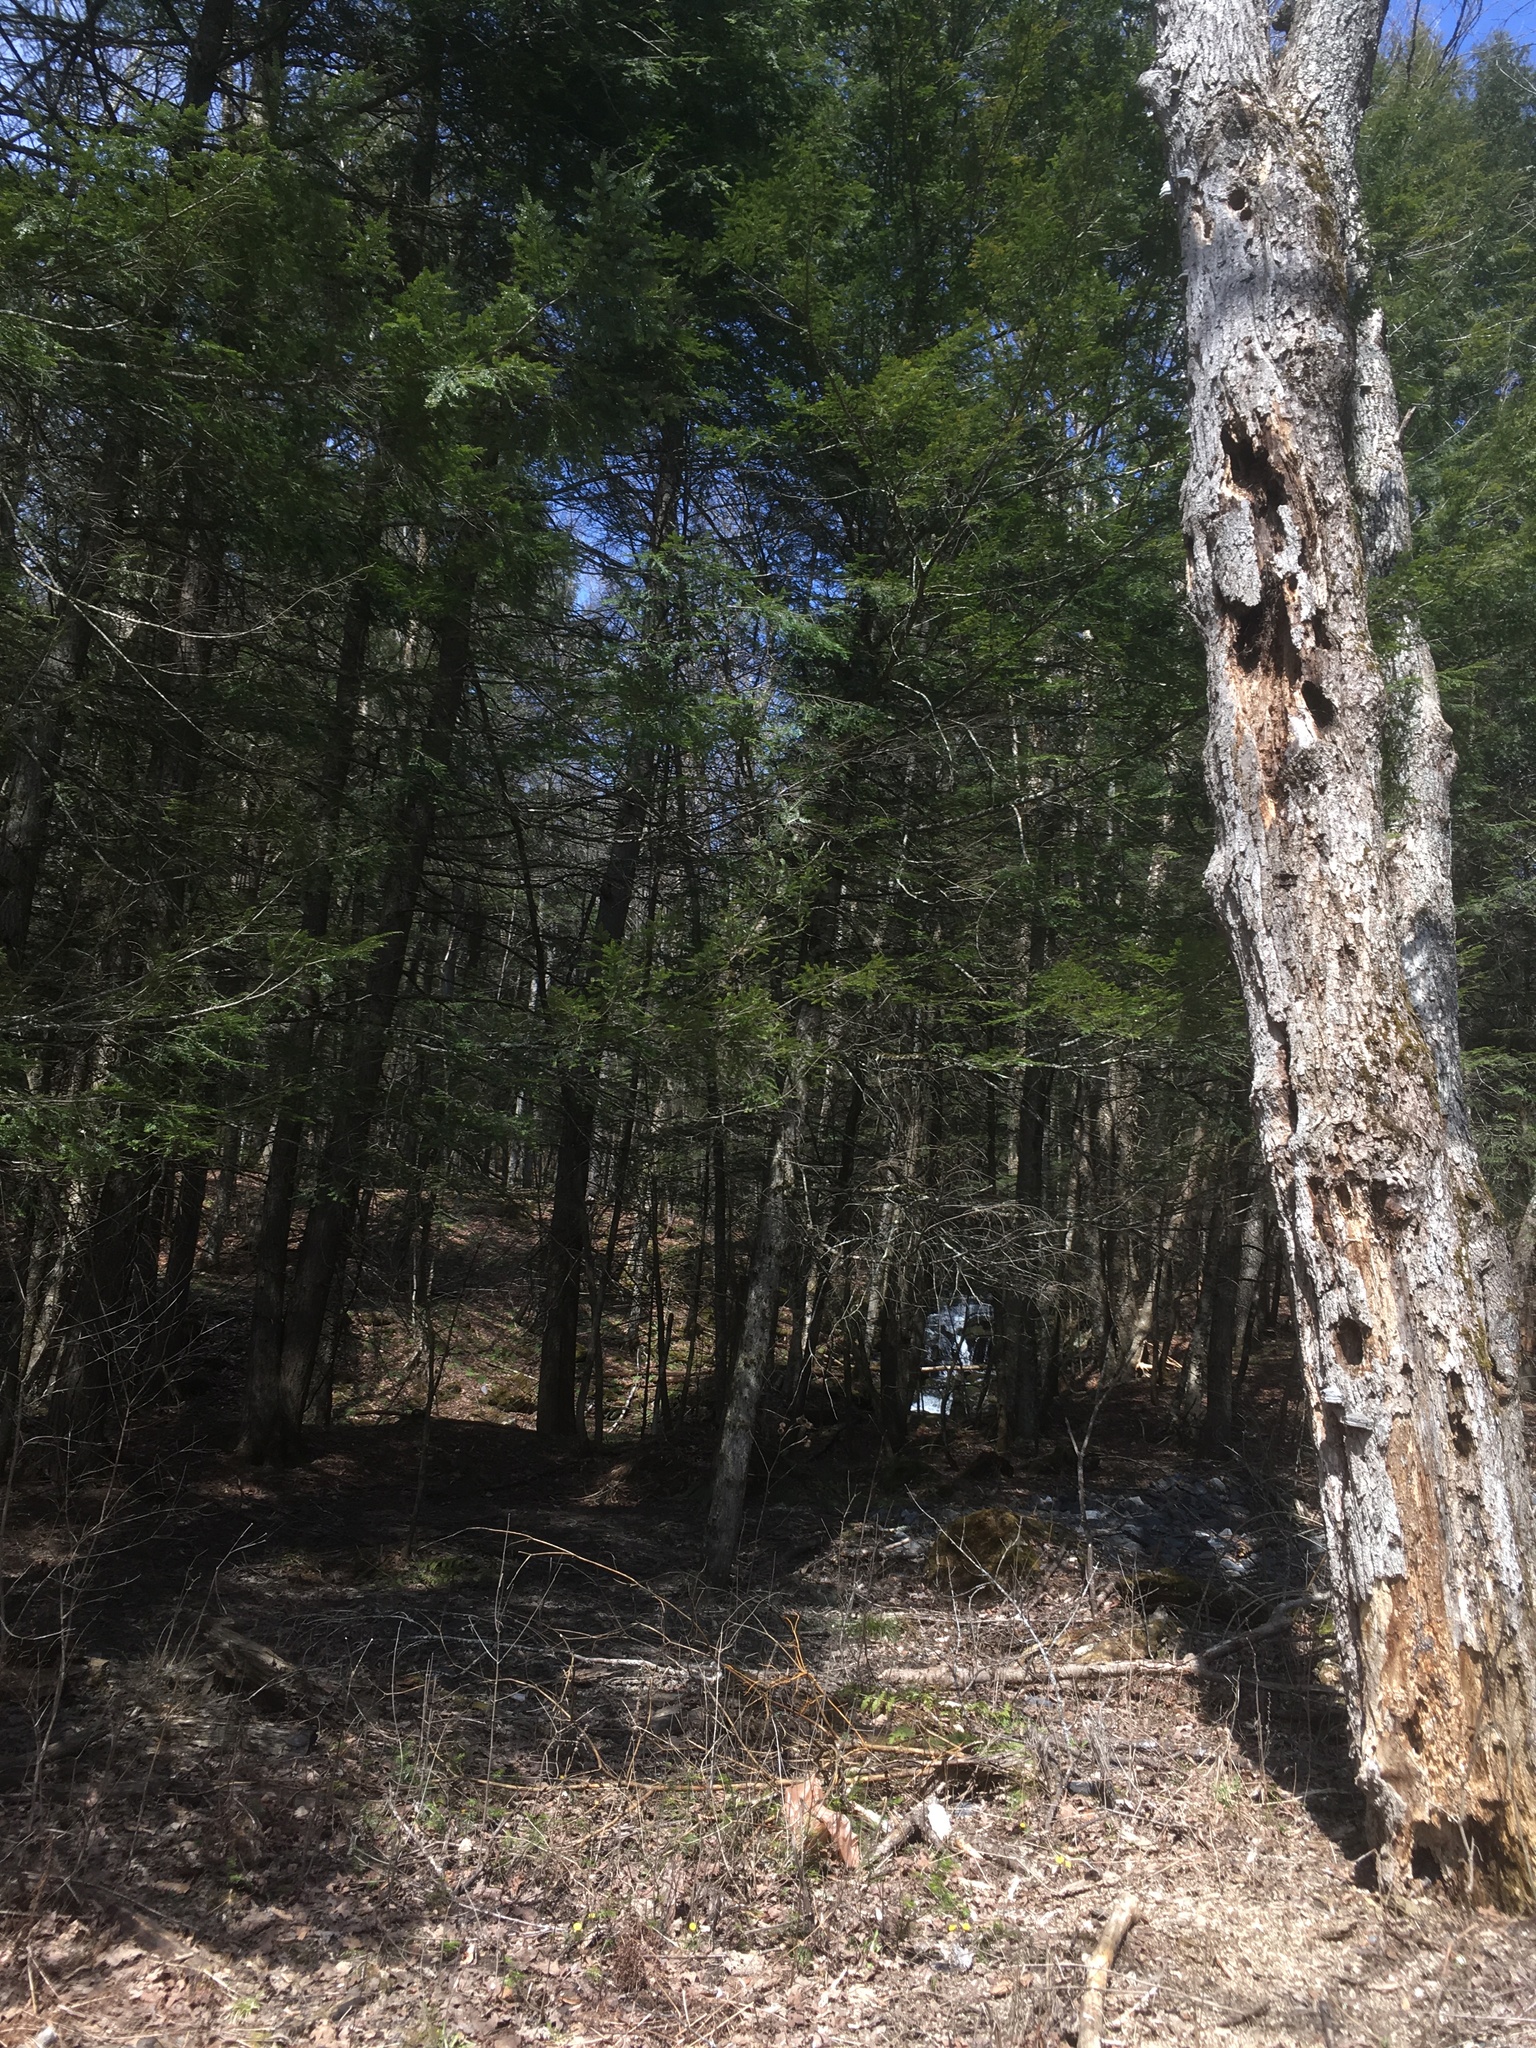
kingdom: Plantae
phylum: Tracheophyta
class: Pinopsida
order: Pinales
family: Pinaceae
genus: Tsuga
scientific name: Tsuga canadensis
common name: Eastern hemlock
